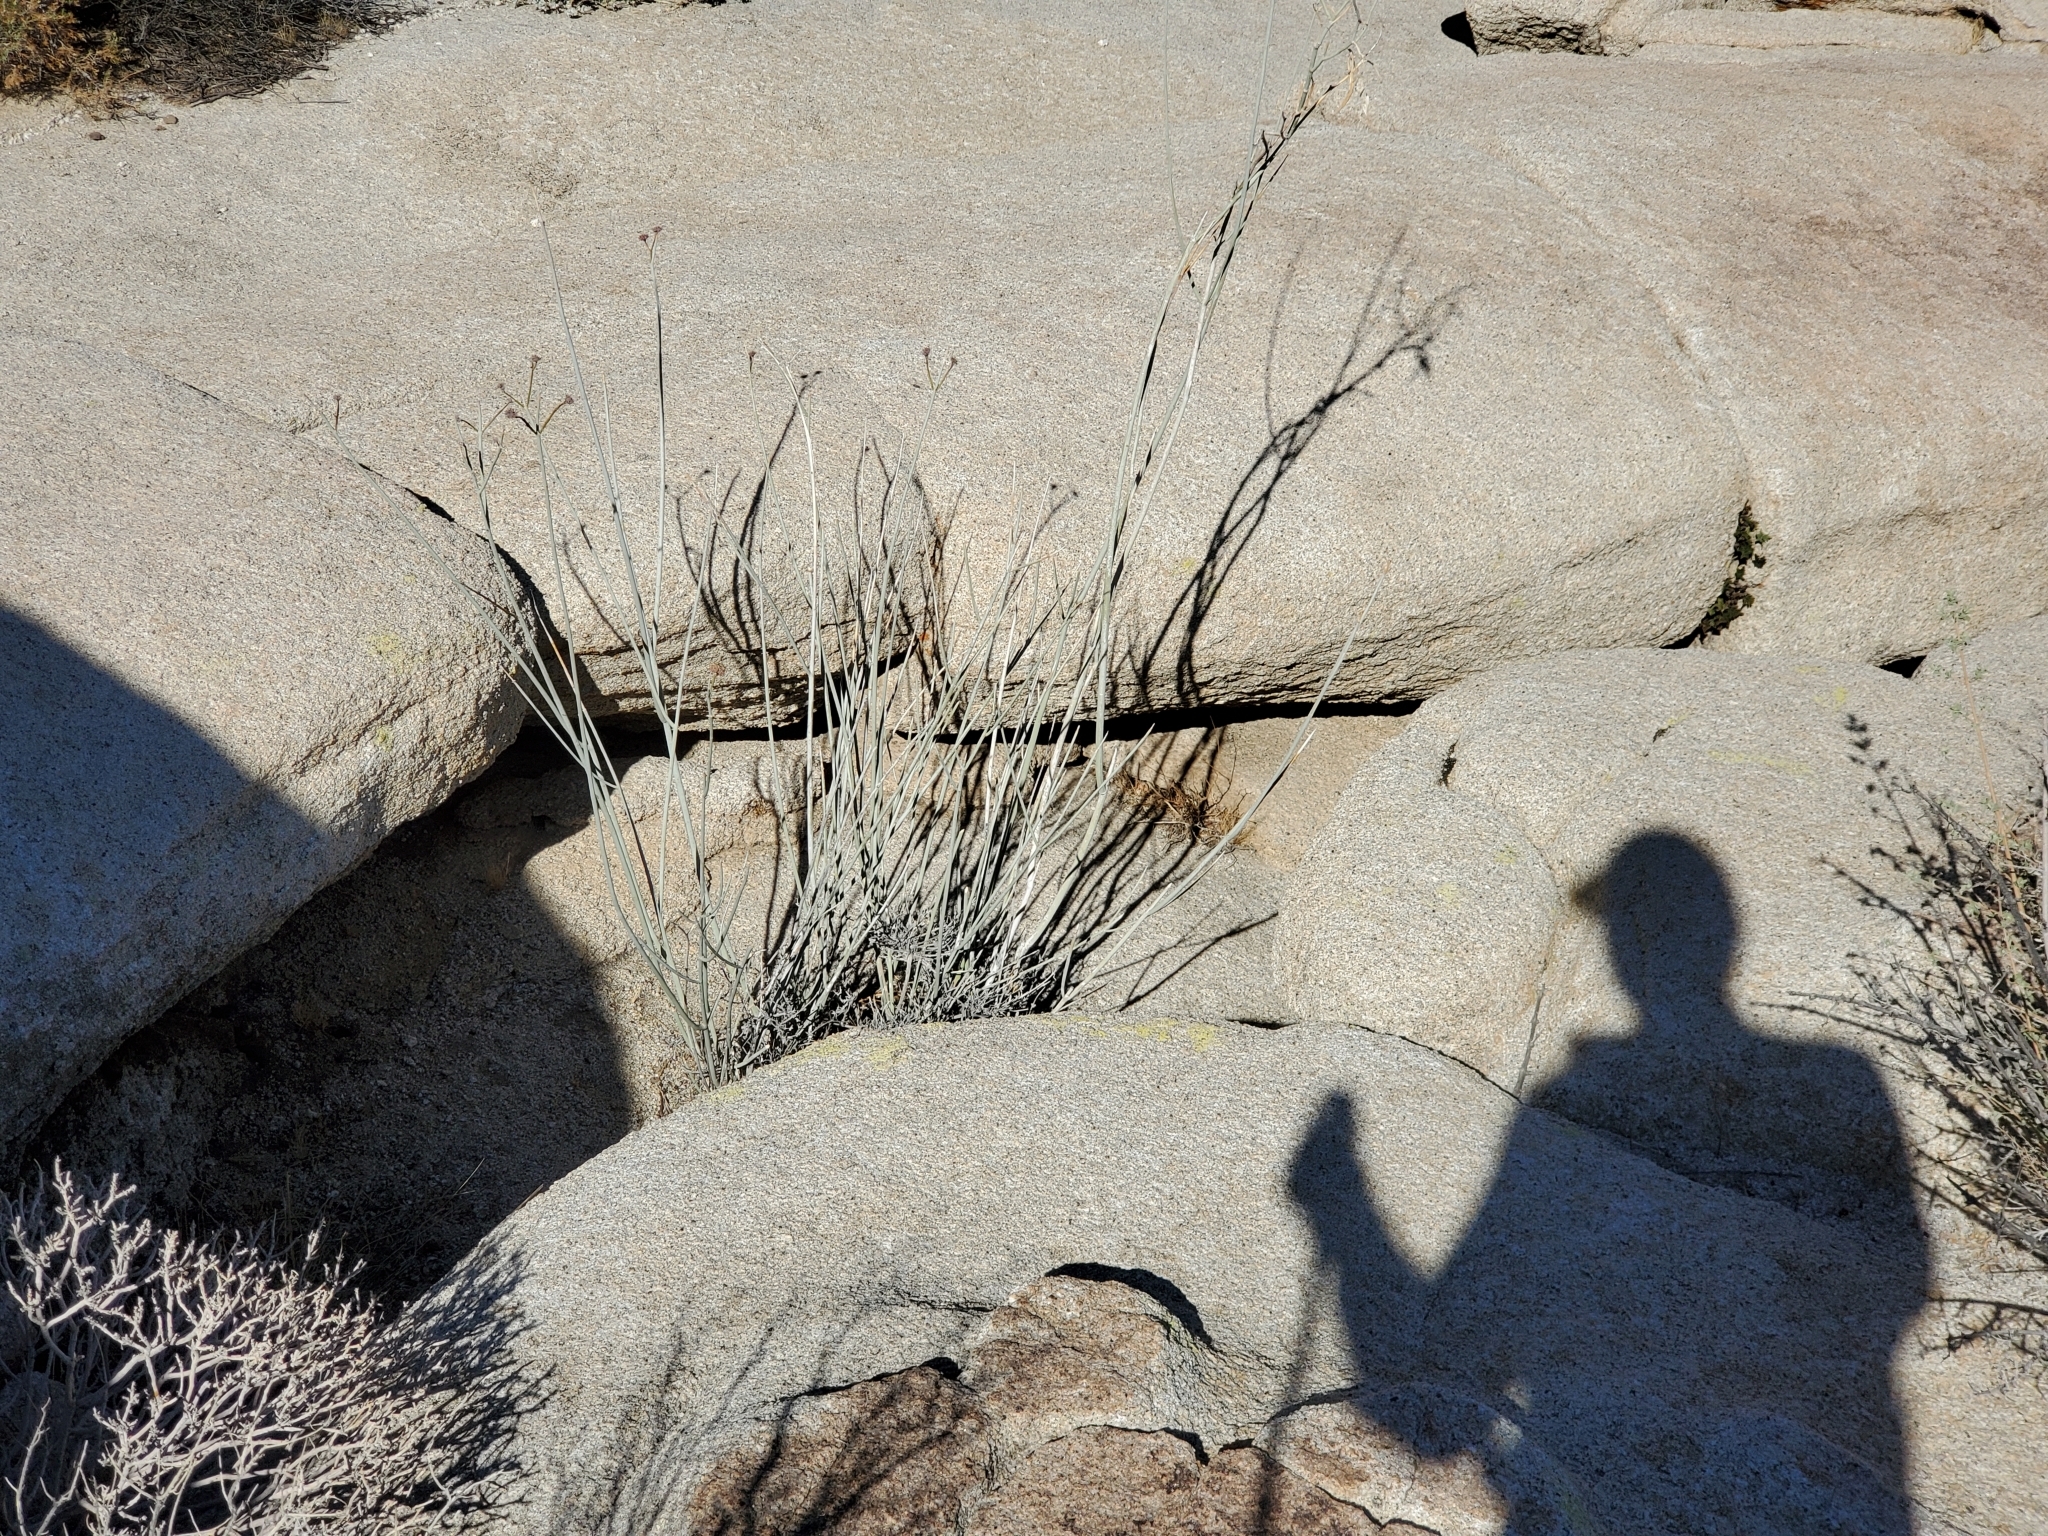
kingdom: Plantae
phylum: Tracheophyta
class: Magnoliopsida
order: Gentianales
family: Apocynaceae
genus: Asclepias
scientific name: Asclepias albicans
